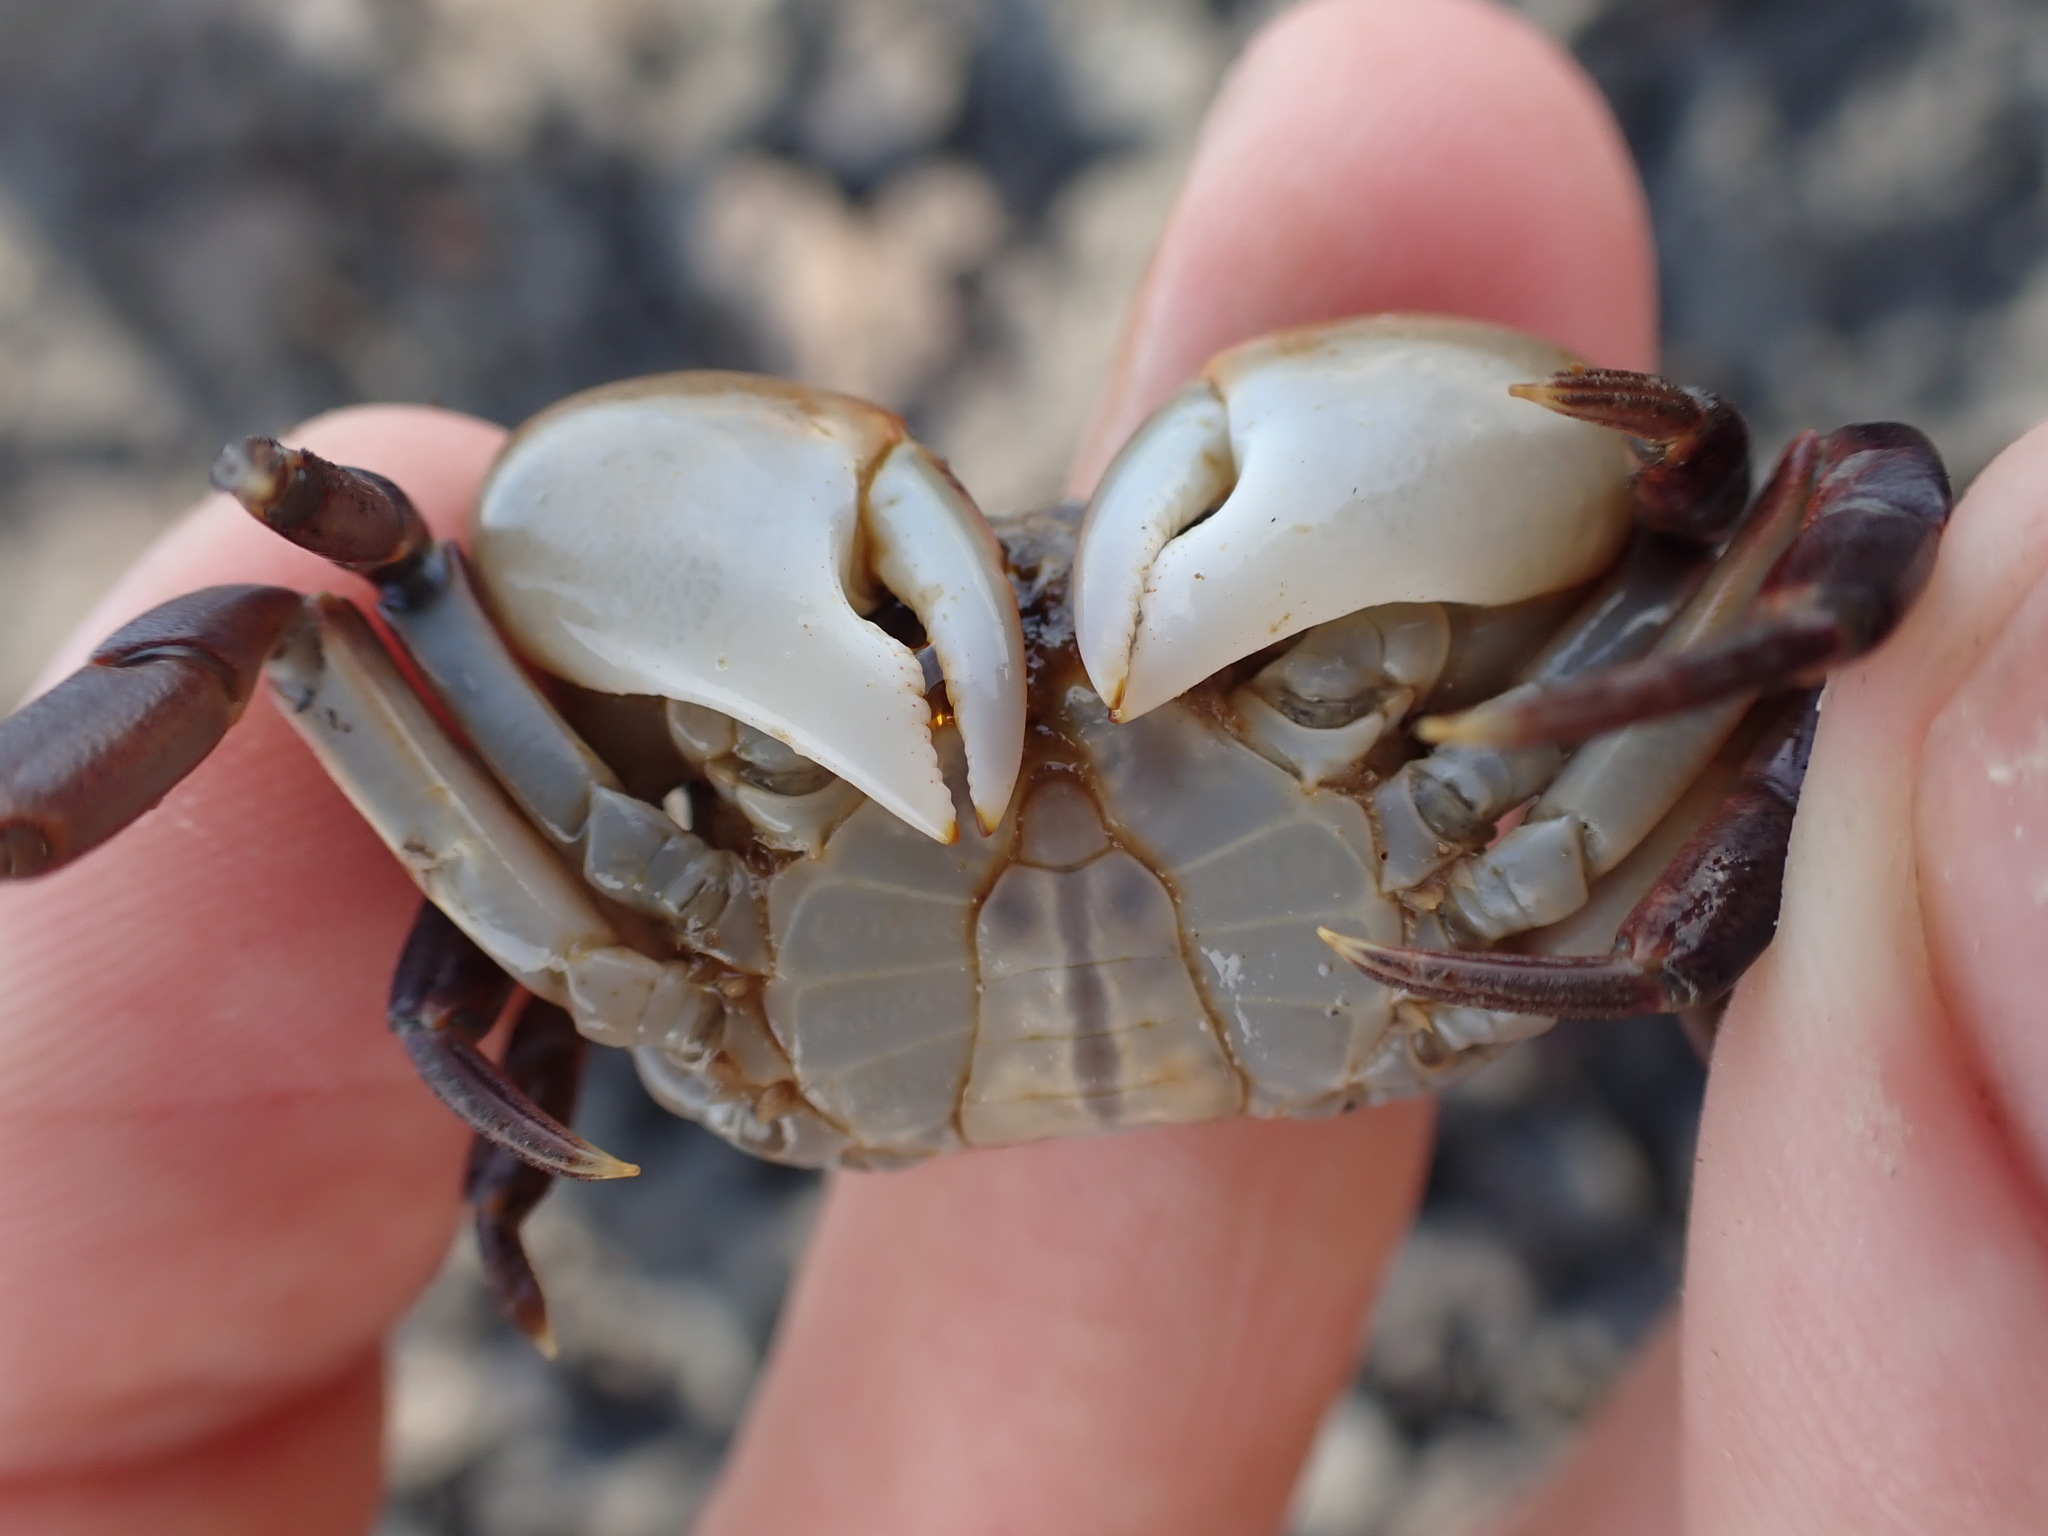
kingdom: Animalia
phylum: Arthropoda
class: Malacostraca
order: Decapoda
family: Varunidae
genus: Cyclograpsus
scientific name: Cyclograpsus lavauxi
